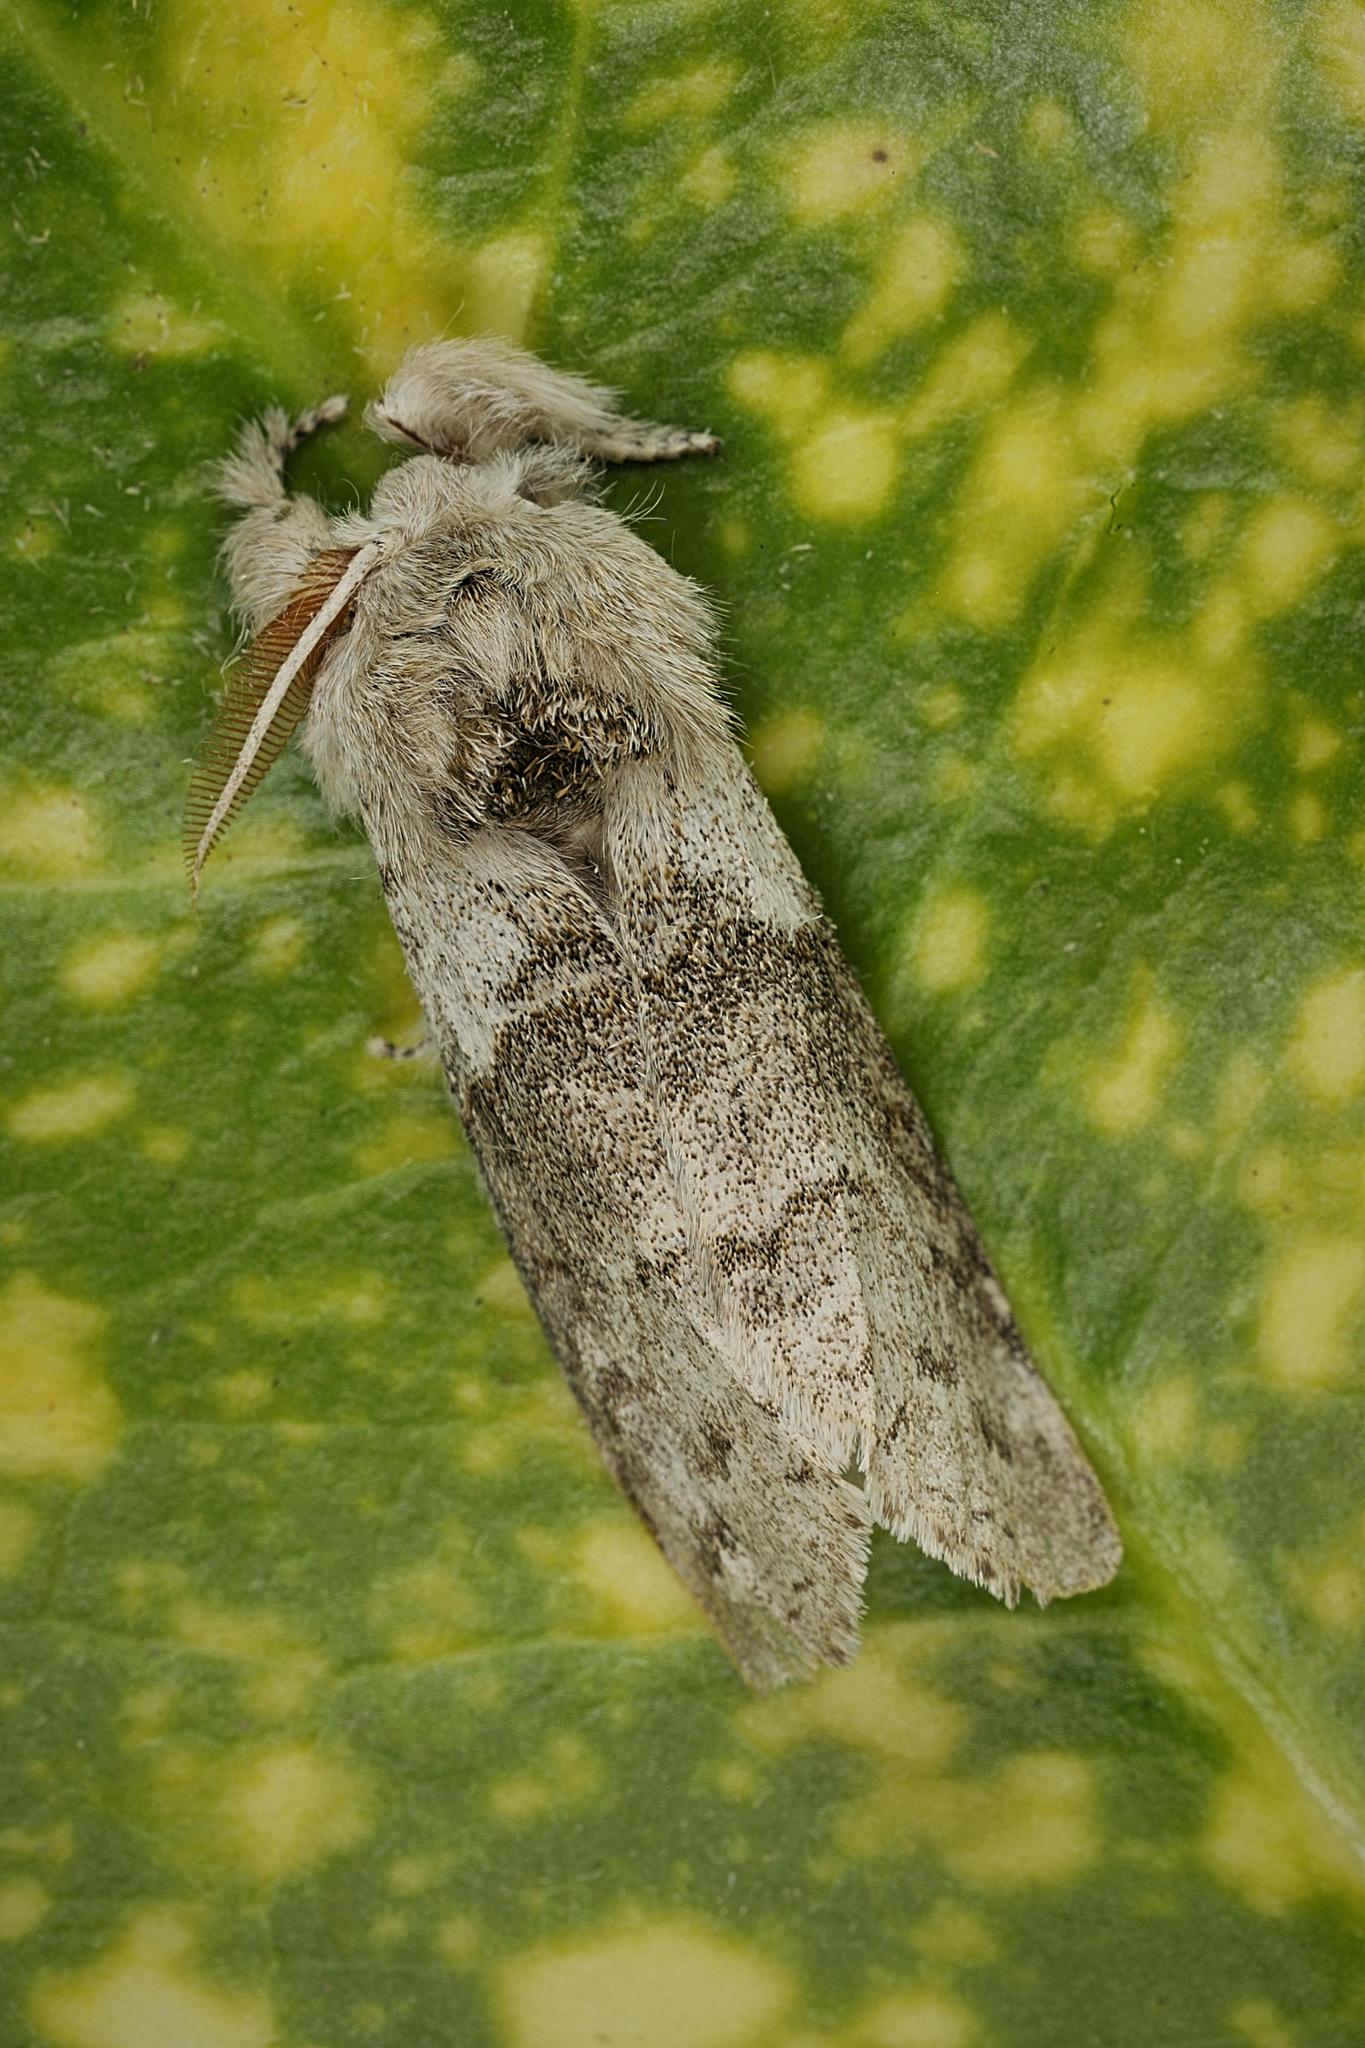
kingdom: Animalia
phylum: Arthropoda
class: Insecta
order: Lepidoptera
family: Erebidae
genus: Calliteara
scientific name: Calliteara pudibunda
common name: Pale tussock
